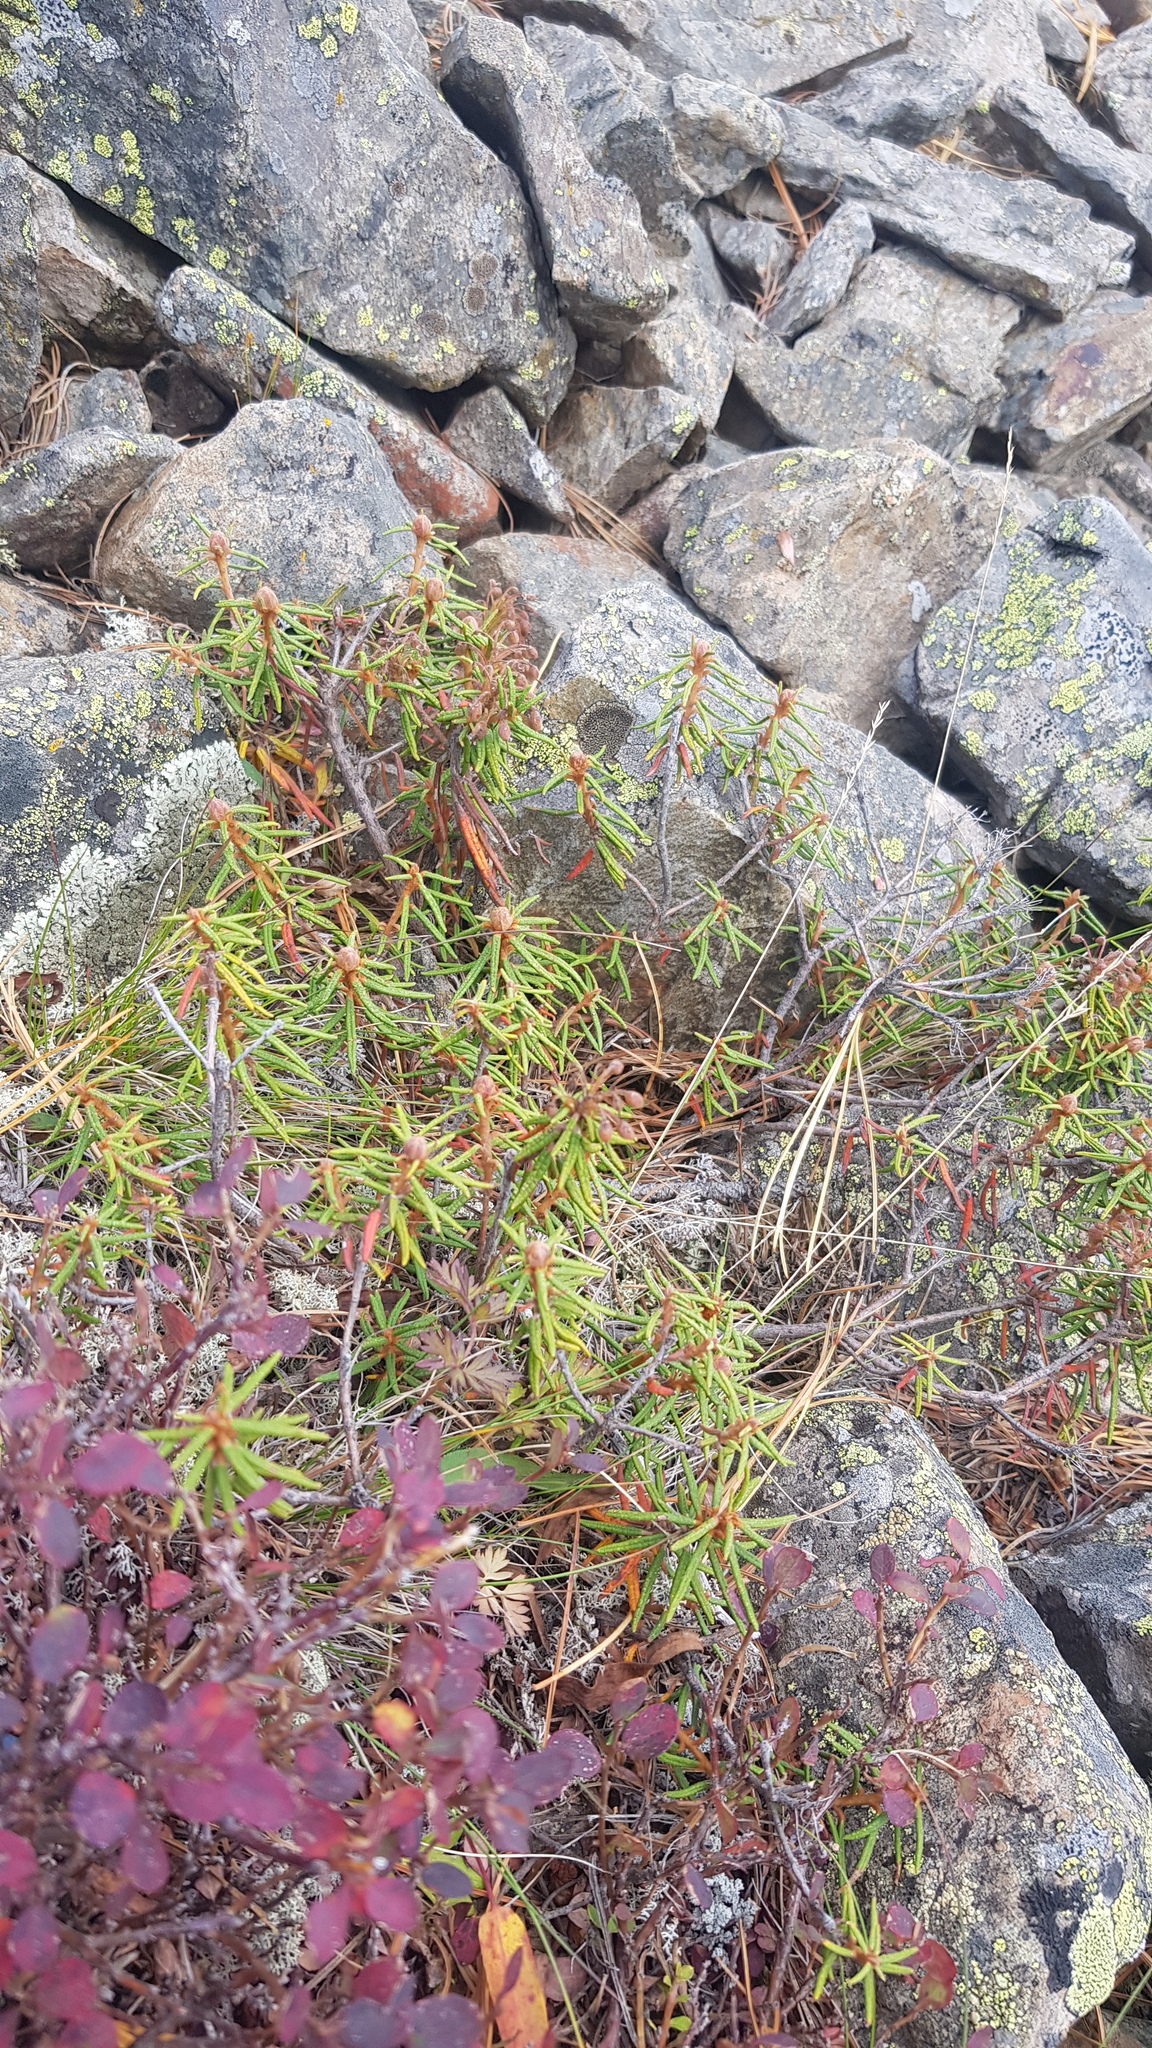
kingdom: Plantae
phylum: Tracheophyta
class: Magnoliopsida
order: Ericales
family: Ericaceae
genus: Rhododendron
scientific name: Rhododendron tomentosum
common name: Marsh labrador tea
